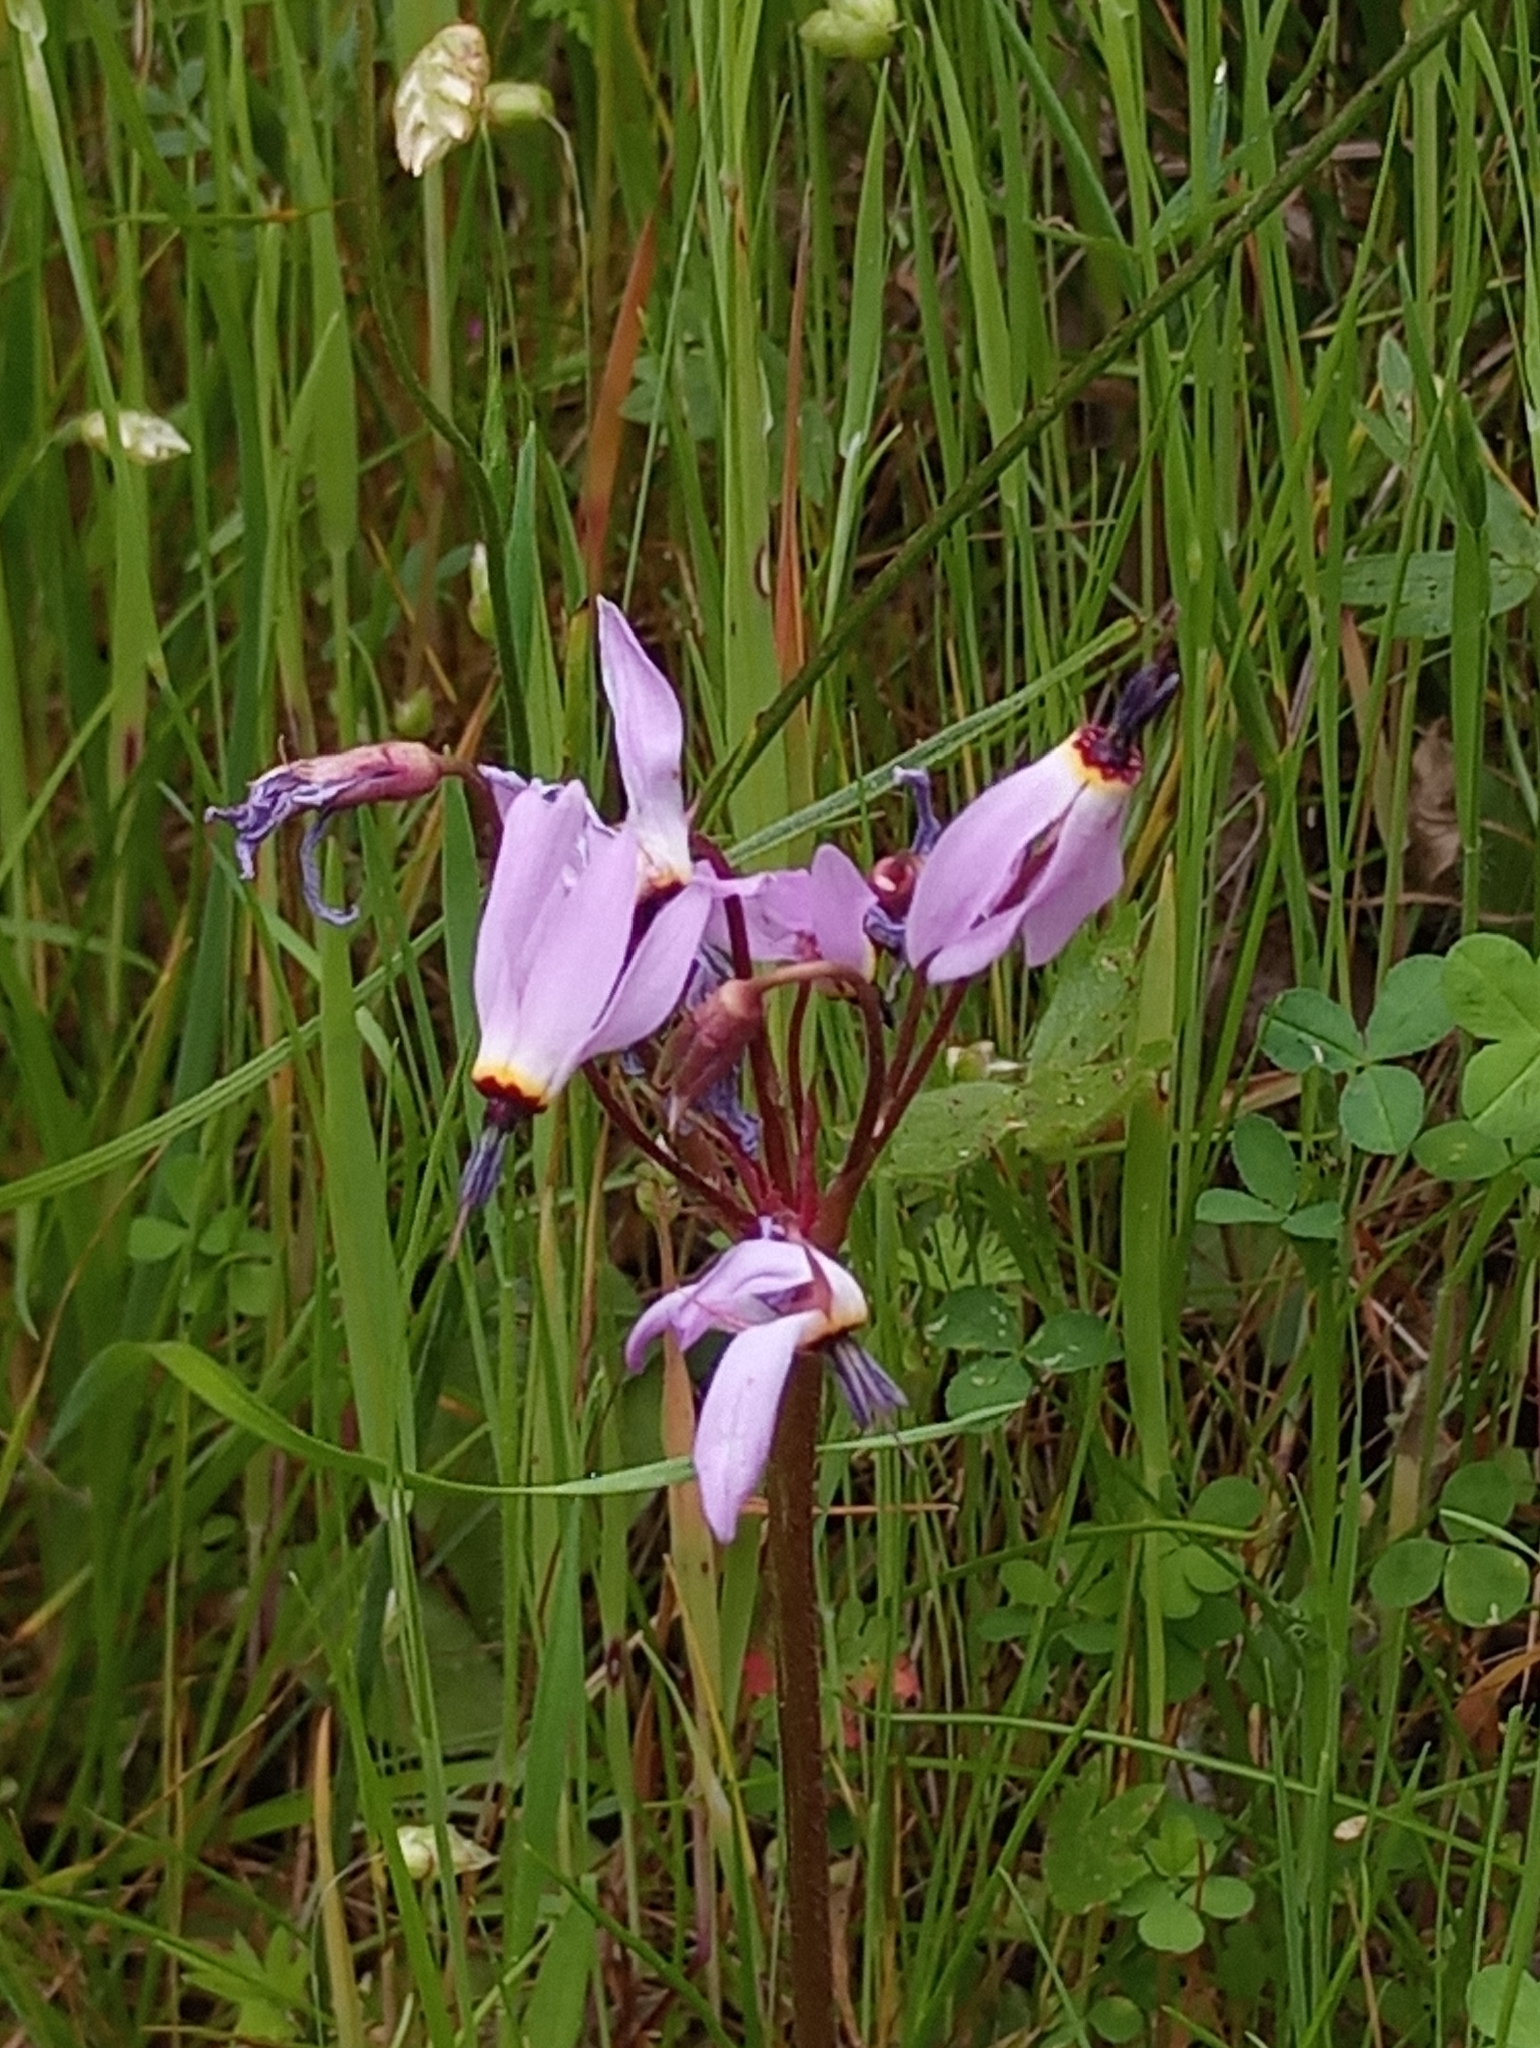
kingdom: Plantae
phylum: Tracheophyta
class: Magnoliopsida
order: Ericales
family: Primulaceae
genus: Dodecatheon
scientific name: Dodecatheon hendersonii
